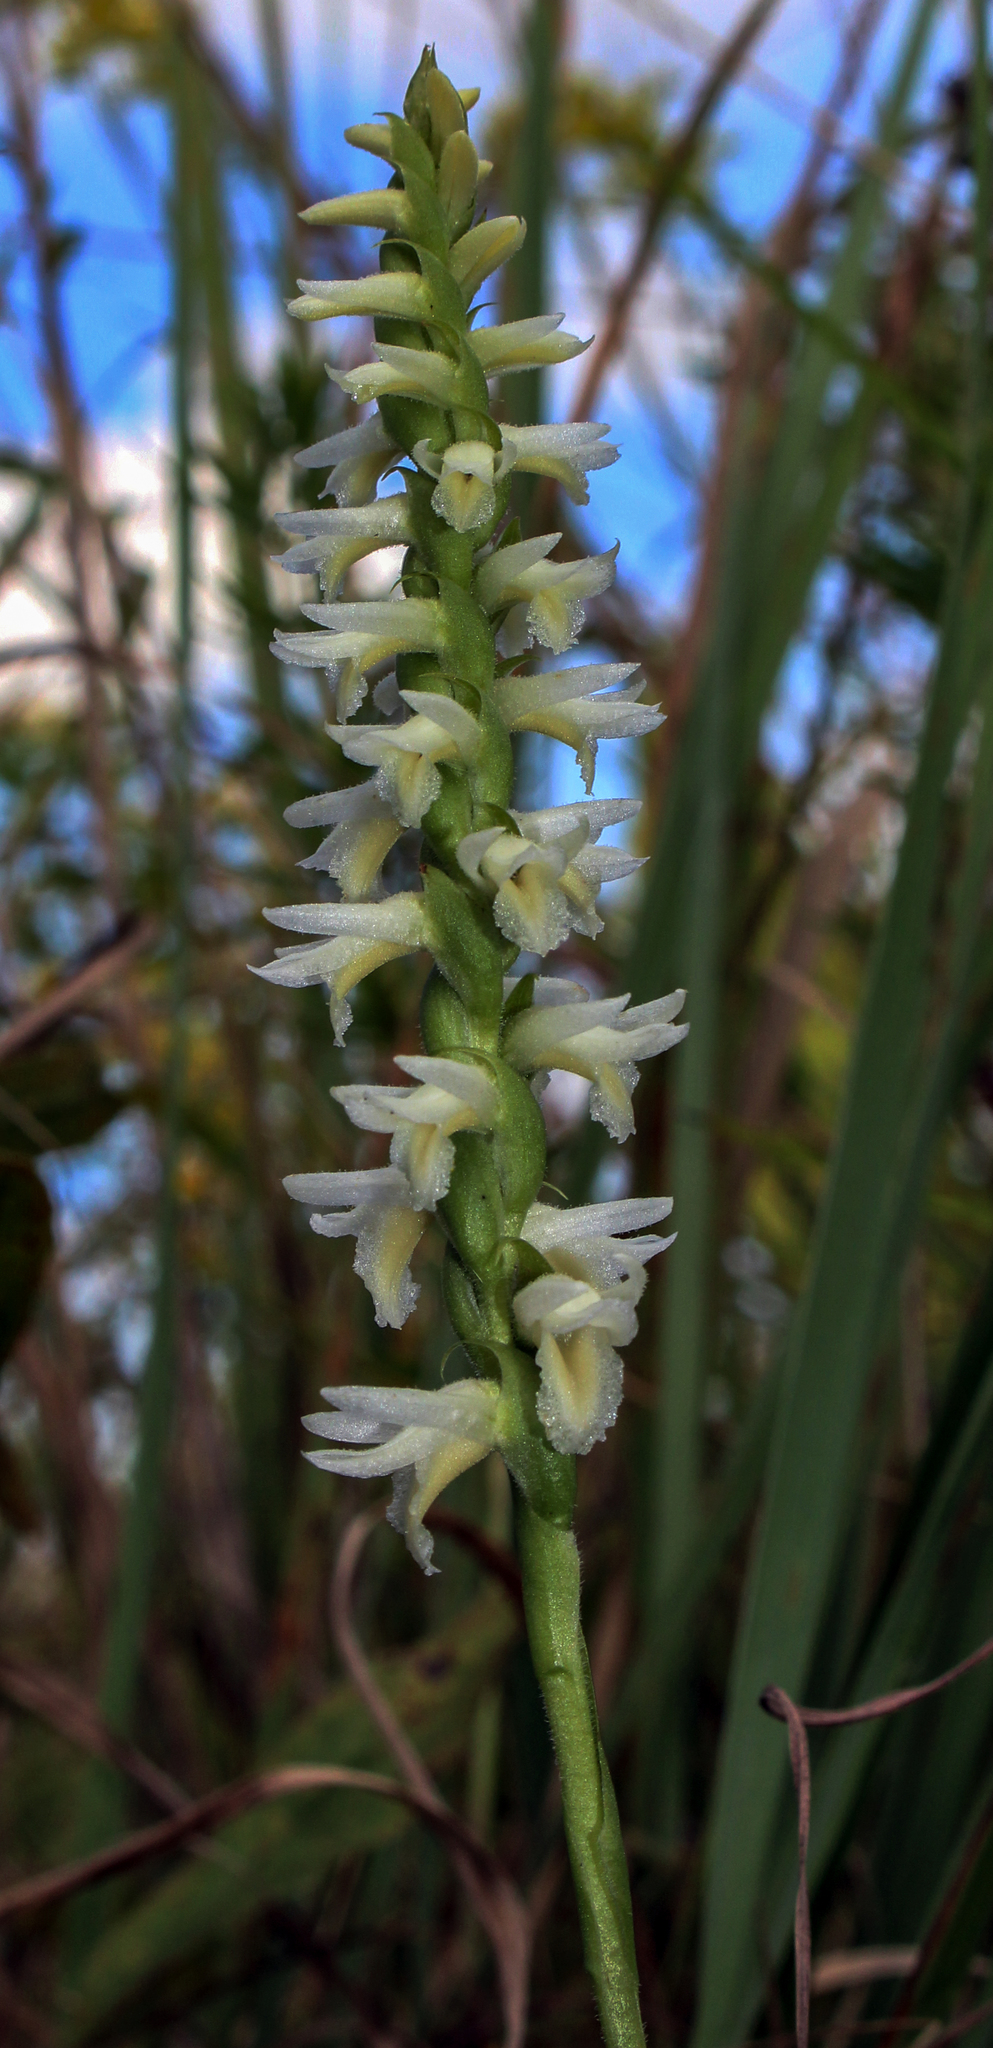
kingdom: Plantae
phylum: Tracheophyta
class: Liliopsida
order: Asparagales
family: Orchidaceae
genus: Spiranthes
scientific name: Spiranthes magnicamporum
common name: Great plains ladies'-tresses
